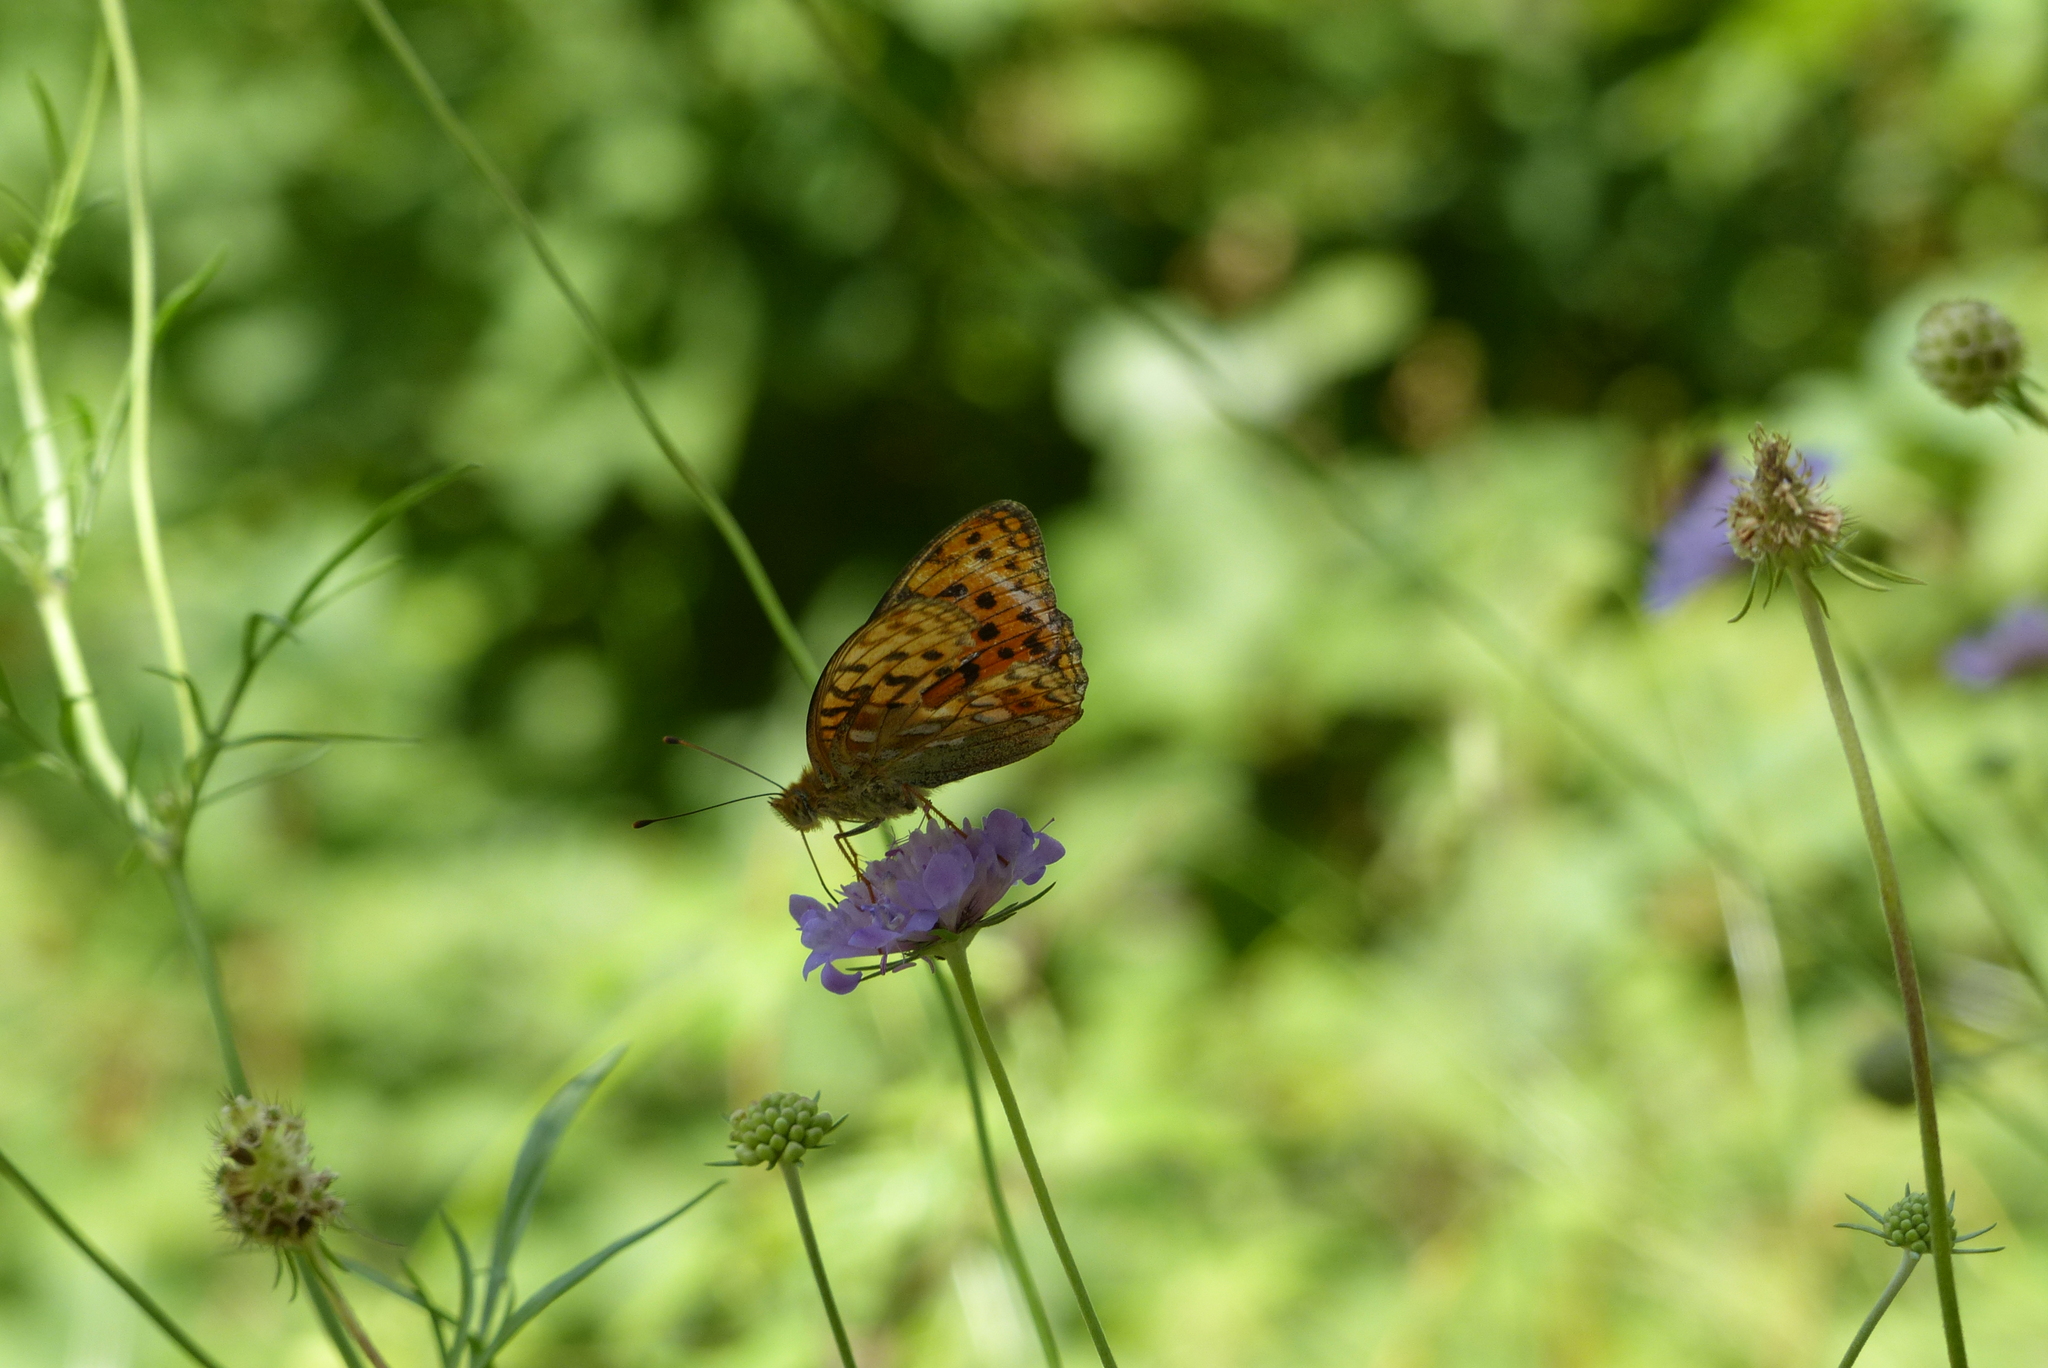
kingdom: Animalia
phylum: Arthropoda
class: Insecta
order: Lepidoptera
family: Nymphalidae
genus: Fabriciana
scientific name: Fabriciana adippe
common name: High brown fritillary
